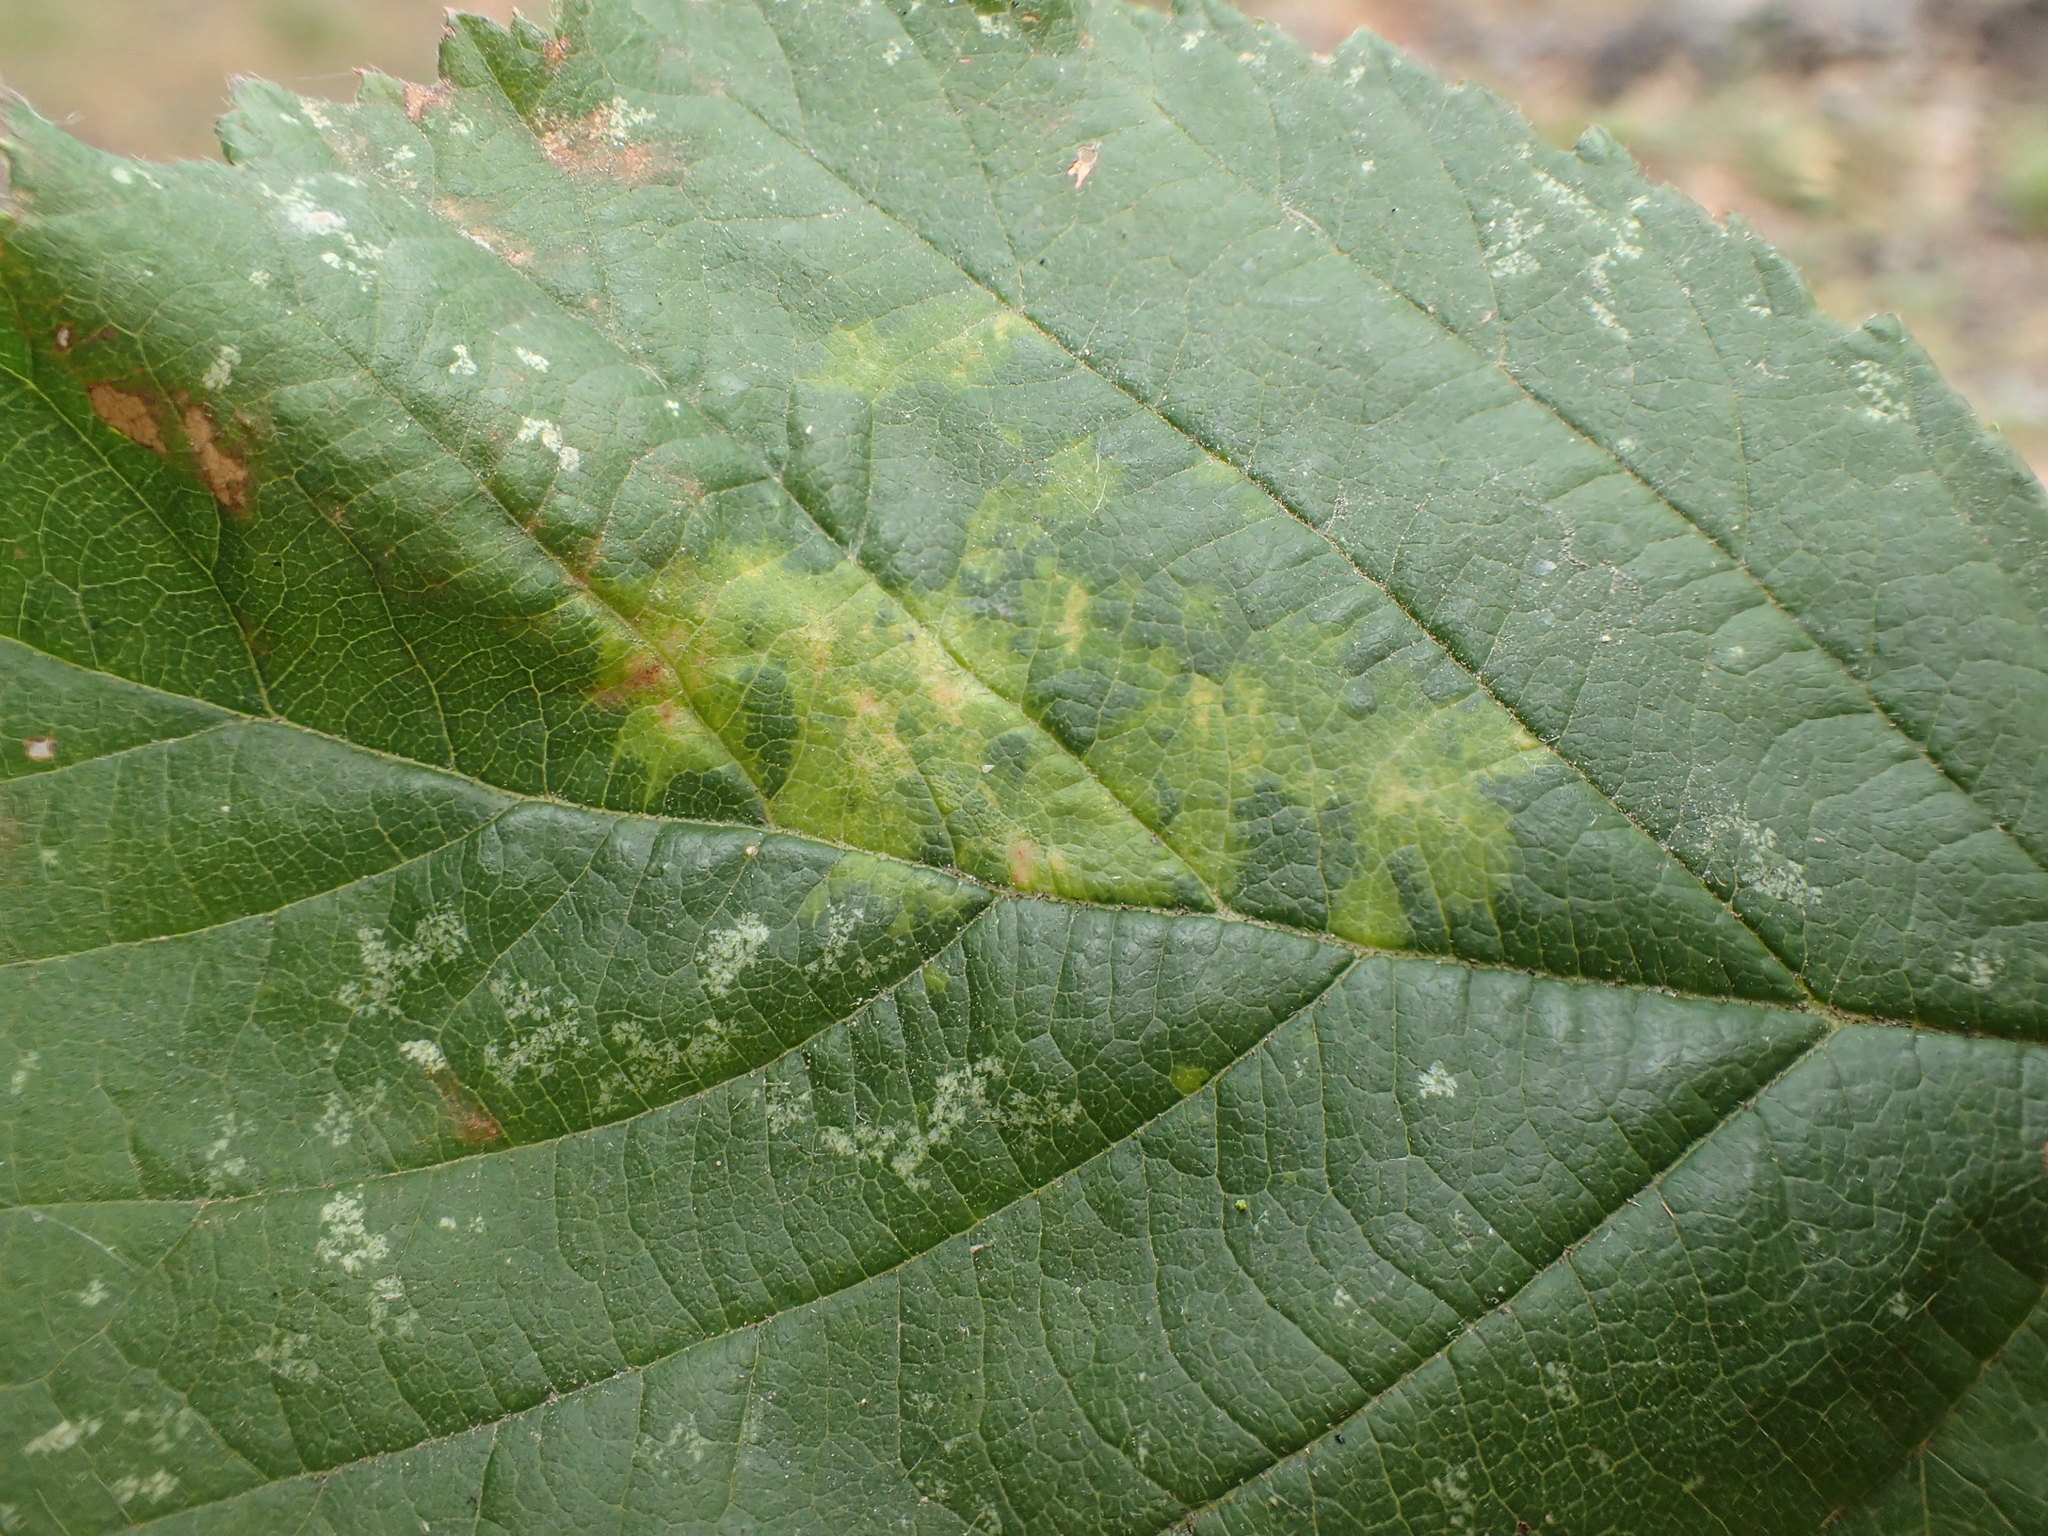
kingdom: Animalia
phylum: Arthropoda
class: Arachnida
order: Trombidiformes
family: Eriophyidae
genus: Epitrimerus
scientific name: Epitrimerus gibbosus
